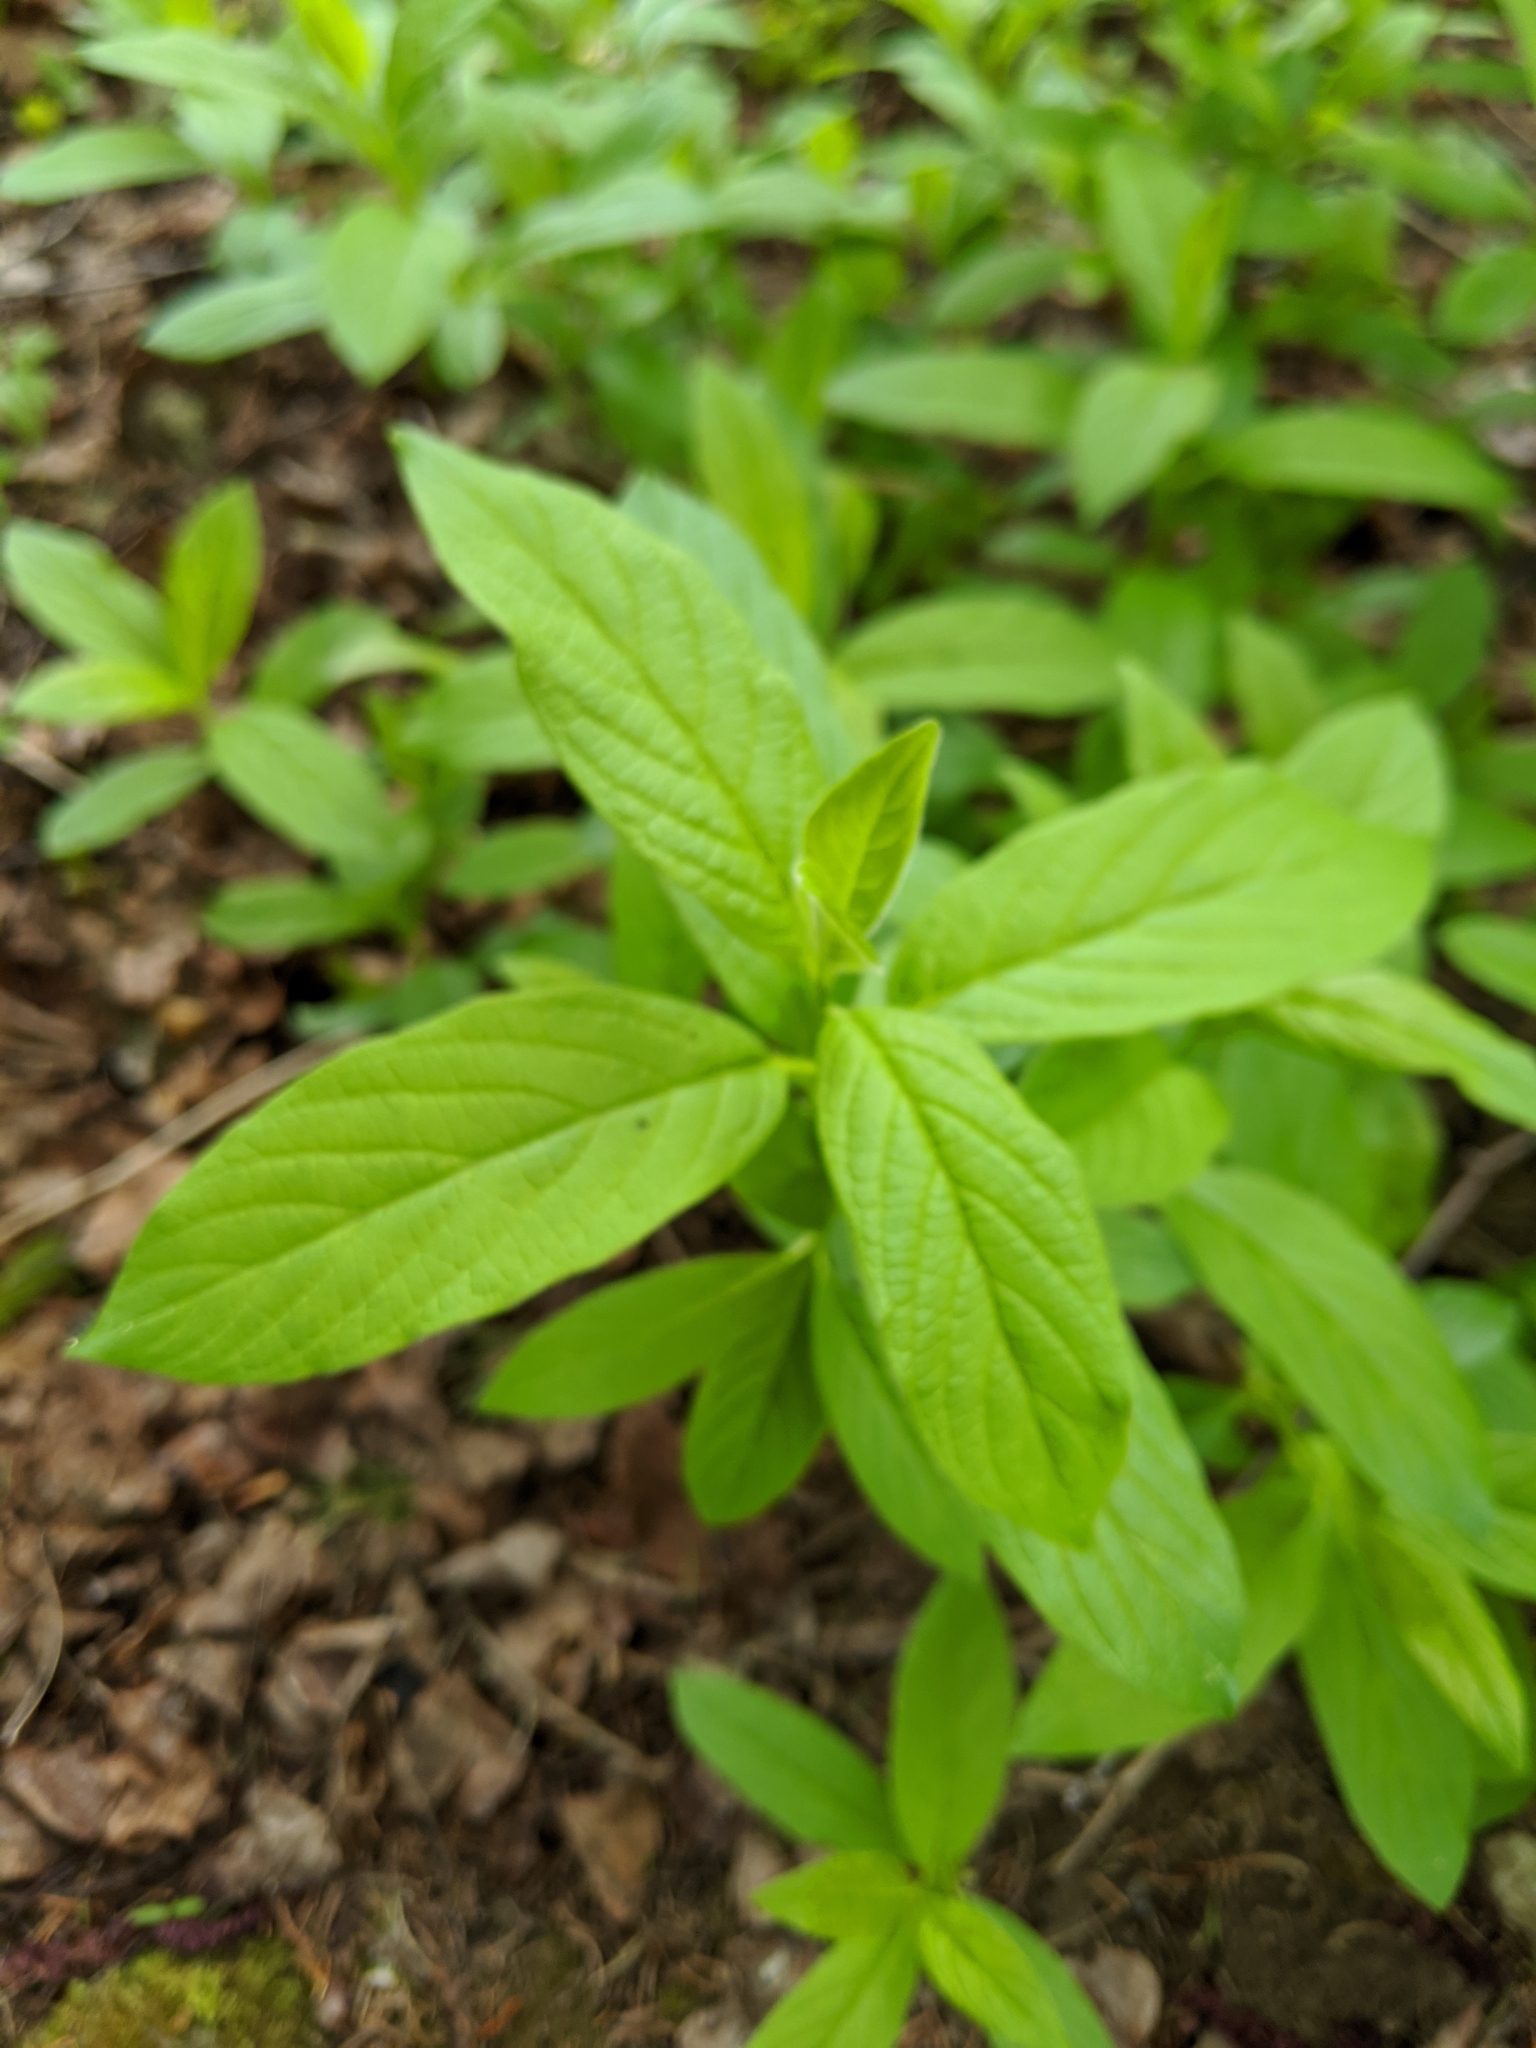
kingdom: Plantae
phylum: Tracheophyta
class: Magnoliopsida
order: Dipsacales
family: Caprifoliaceae
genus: Lonicera
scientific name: Lonicera involucrata
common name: Californian honeysuckle
